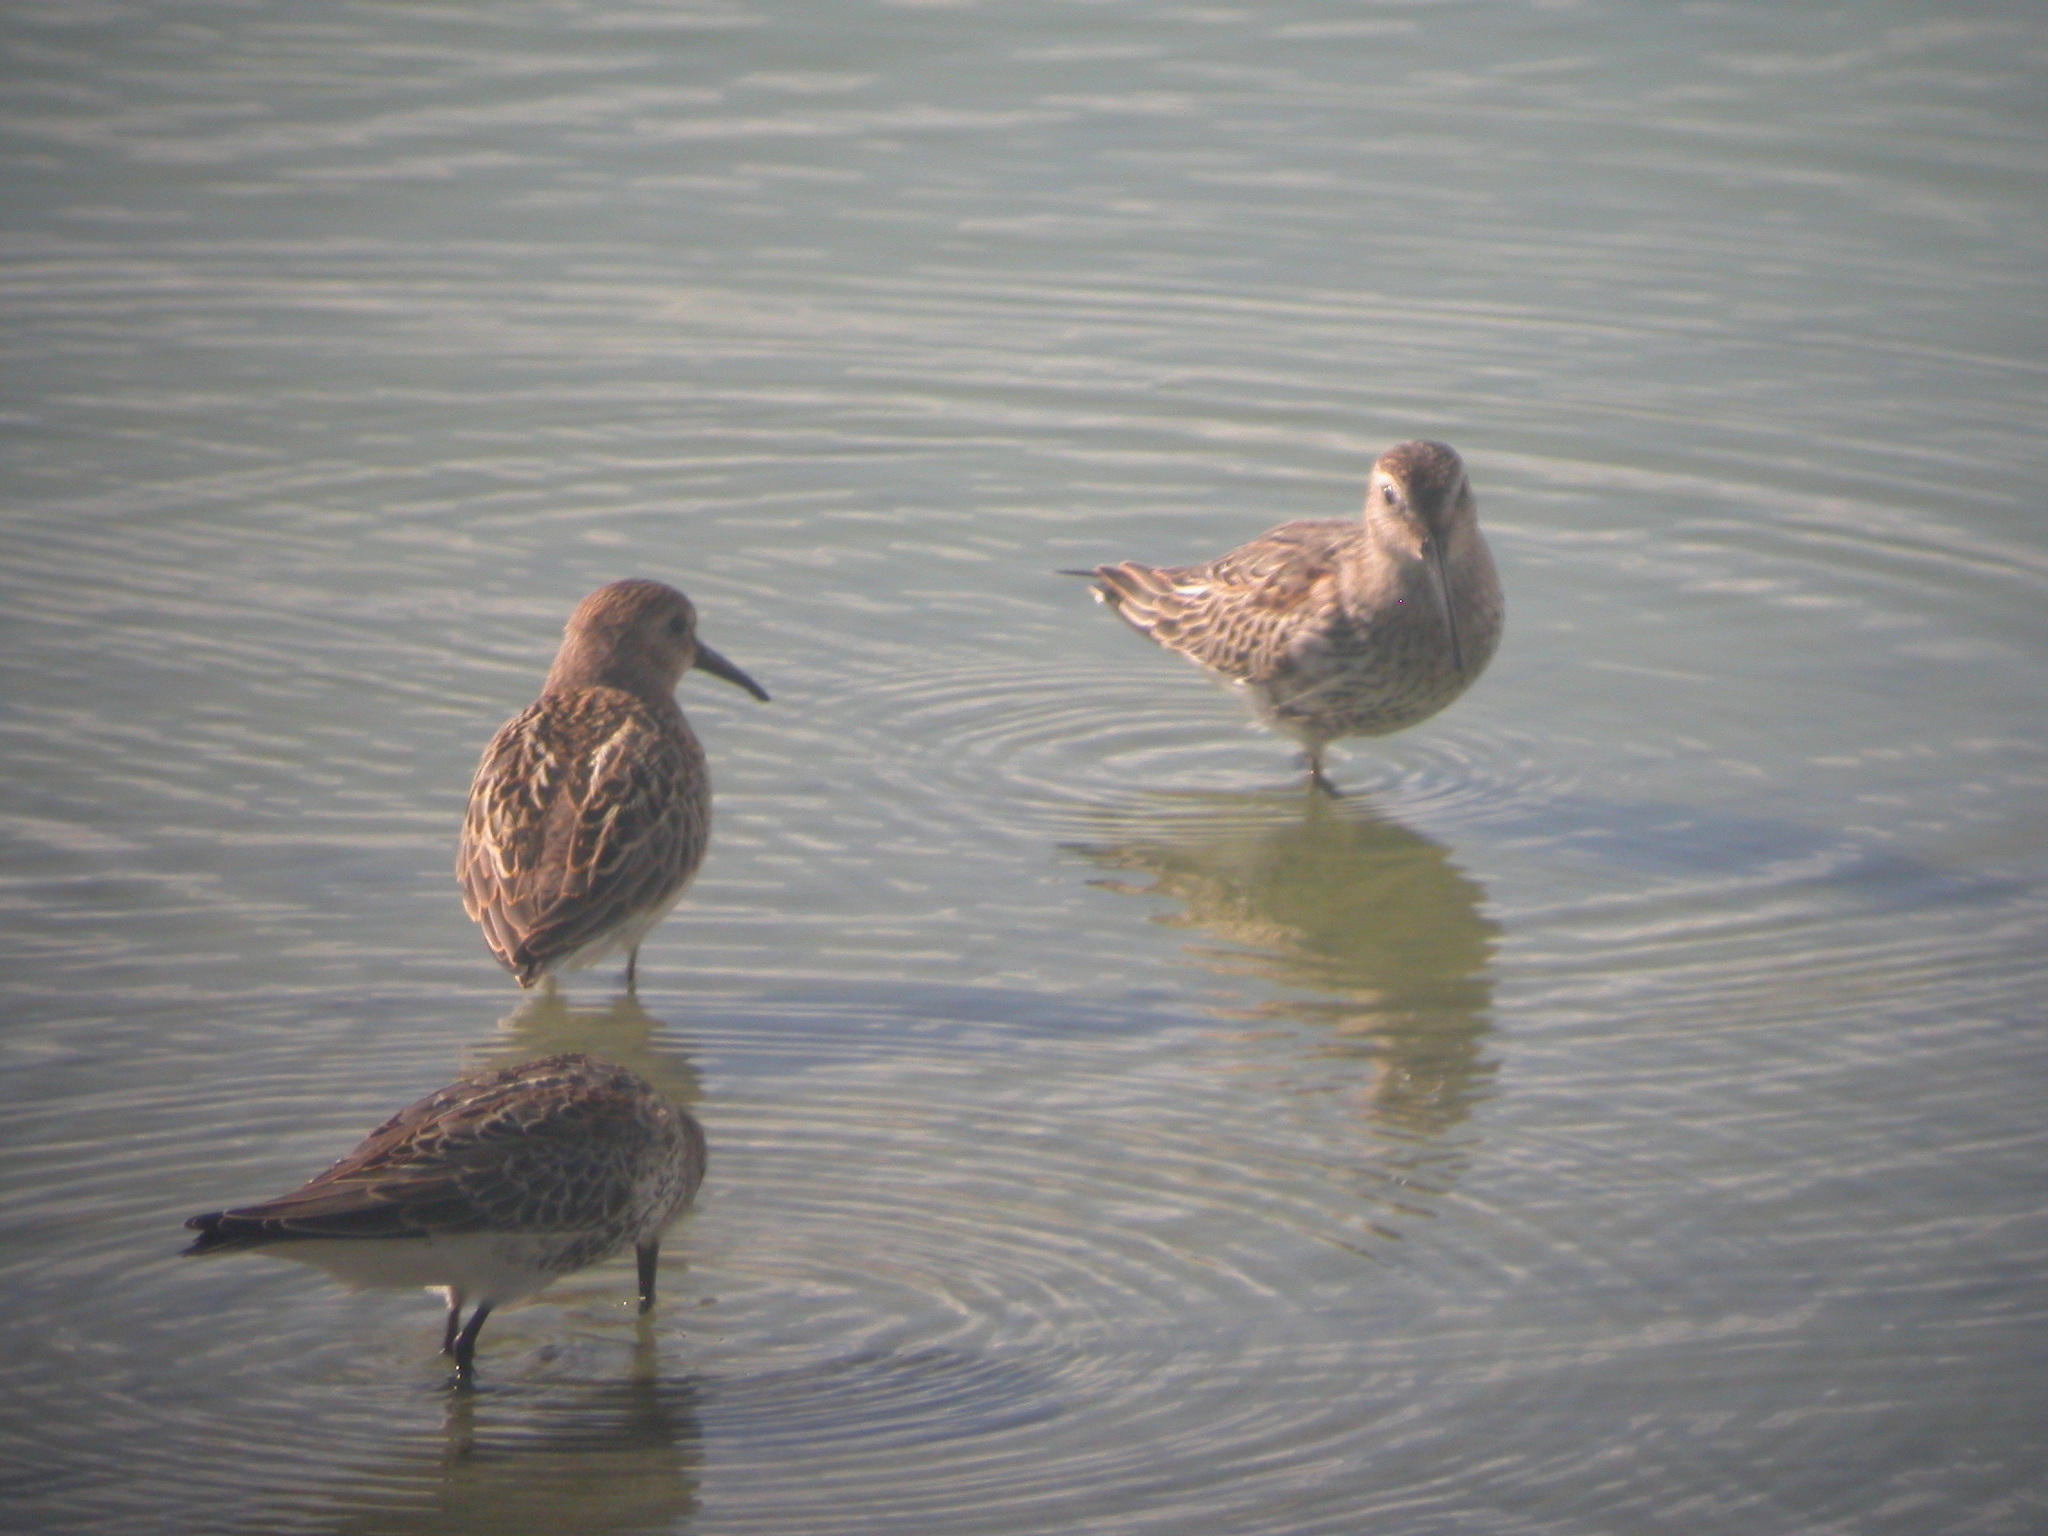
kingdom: Animalia
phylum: Chordata
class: Aves
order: Charadriiformes
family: Scolopacidae
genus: Calidris
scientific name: Calidris alpina
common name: Dunlin
